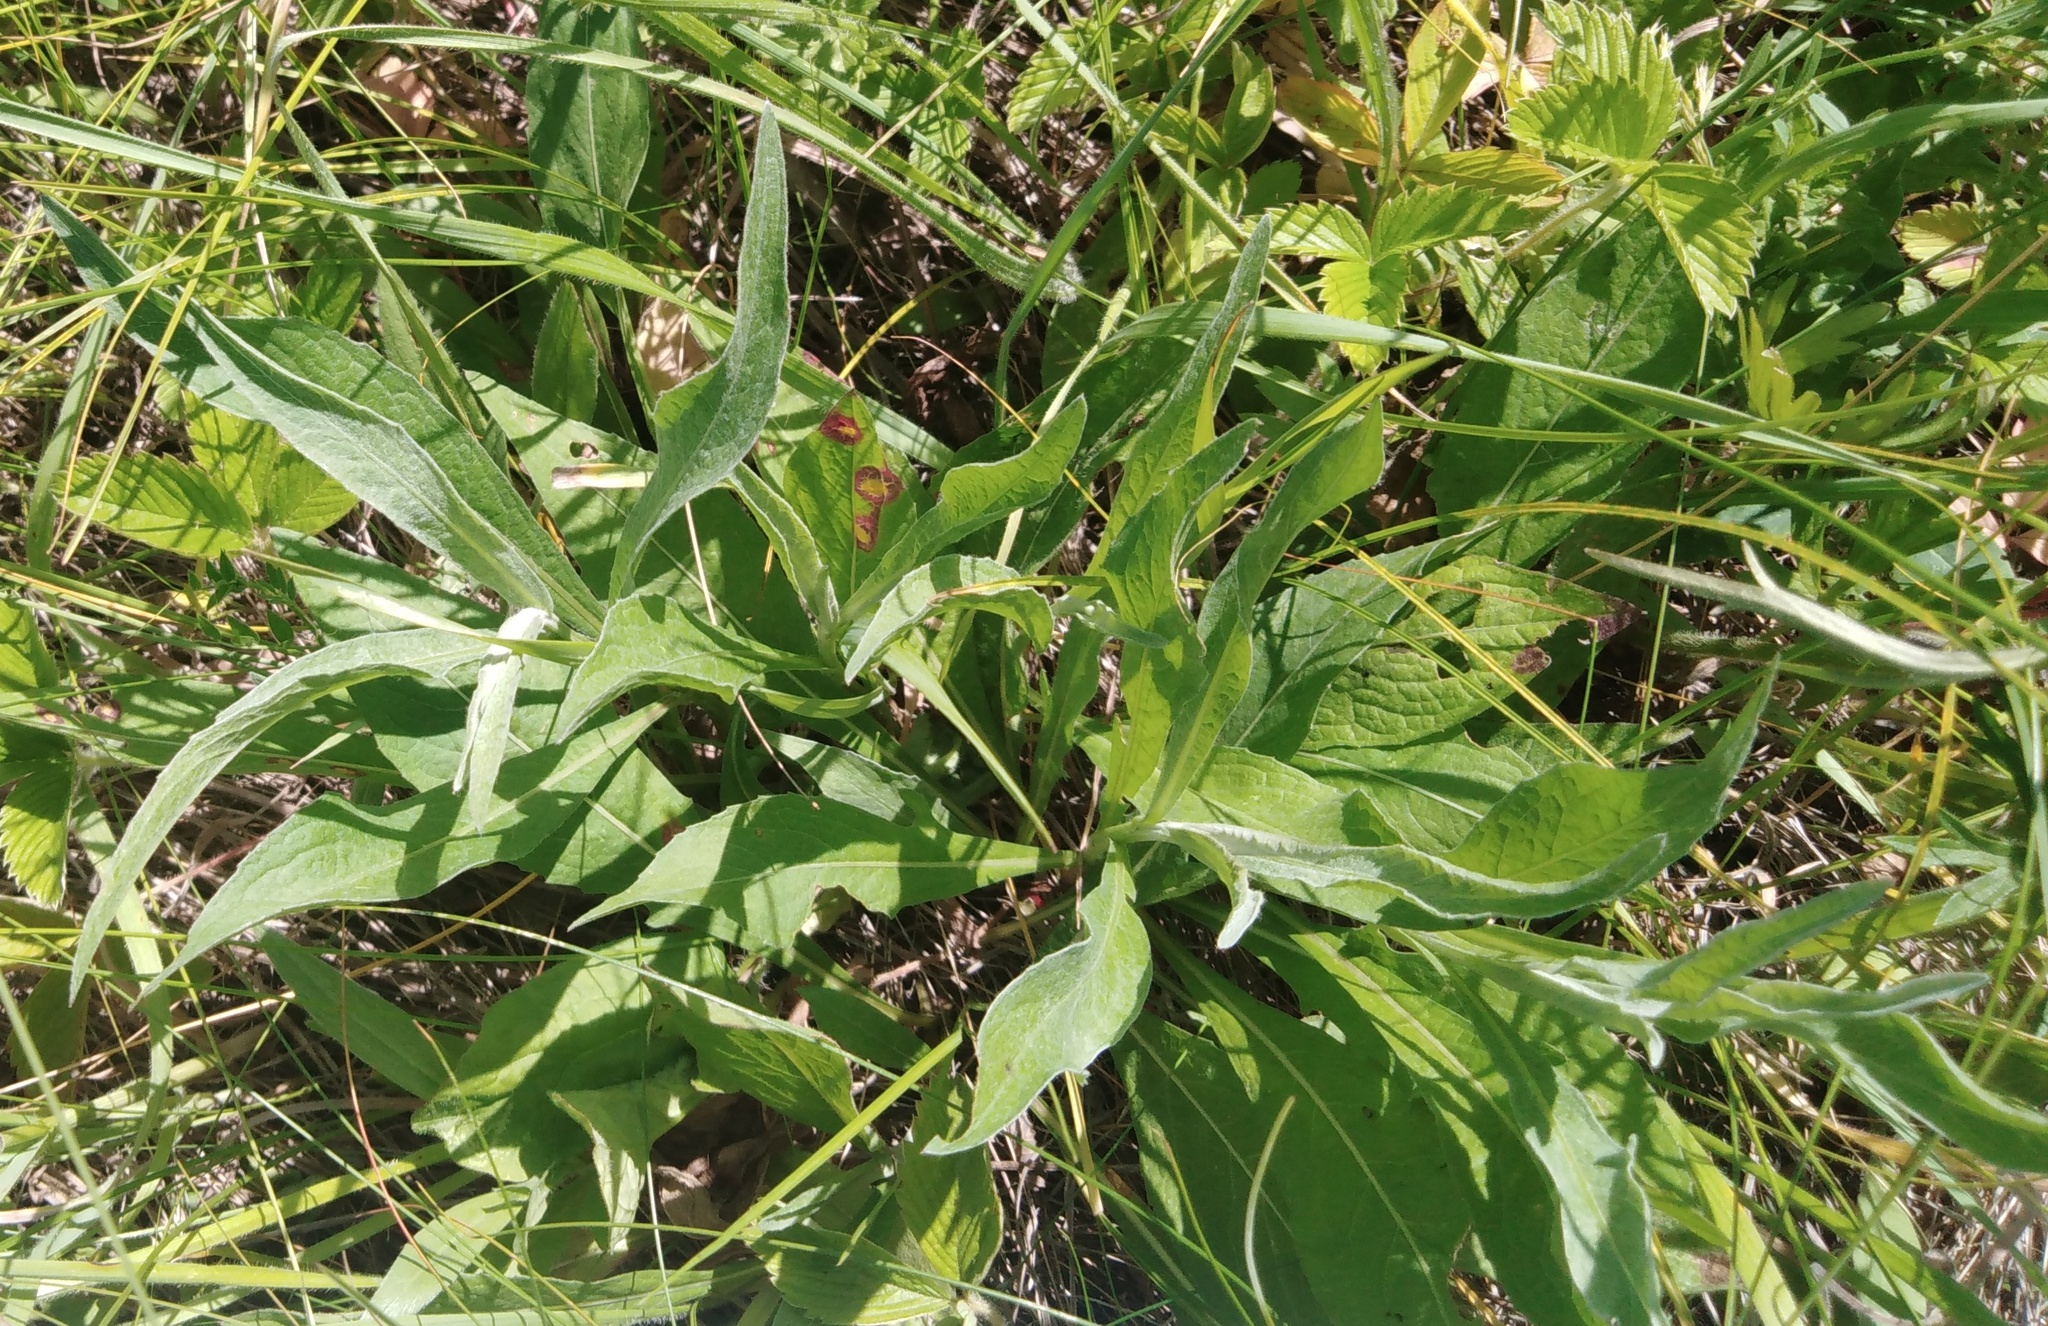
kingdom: Plantae
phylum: Tracheophyta
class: Magnoliopsida
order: Asterales
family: Asteraceae
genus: Centaurea
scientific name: Centaurea jacea
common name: Brown knapweed
